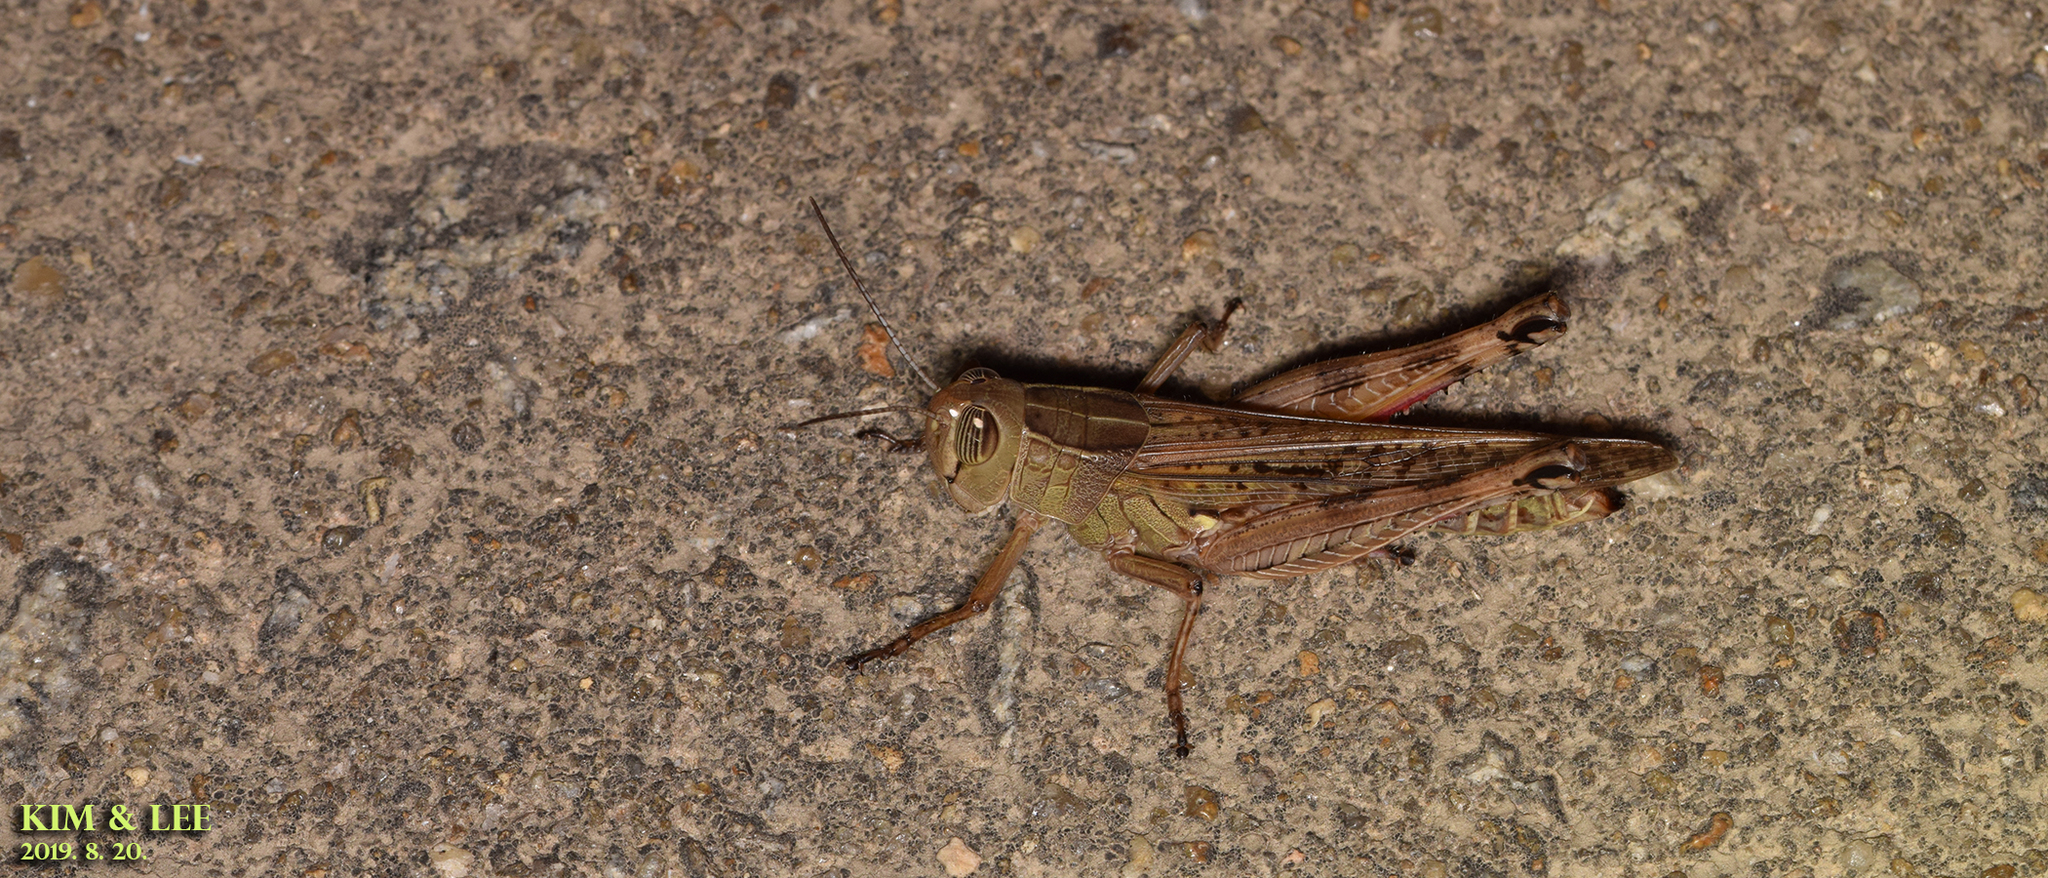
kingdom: Animalia
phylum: Arthropoda
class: Insecta
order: Orthoptera
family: Acrididae
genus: Shirakiacris
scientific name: Shirakiacris shirakii
